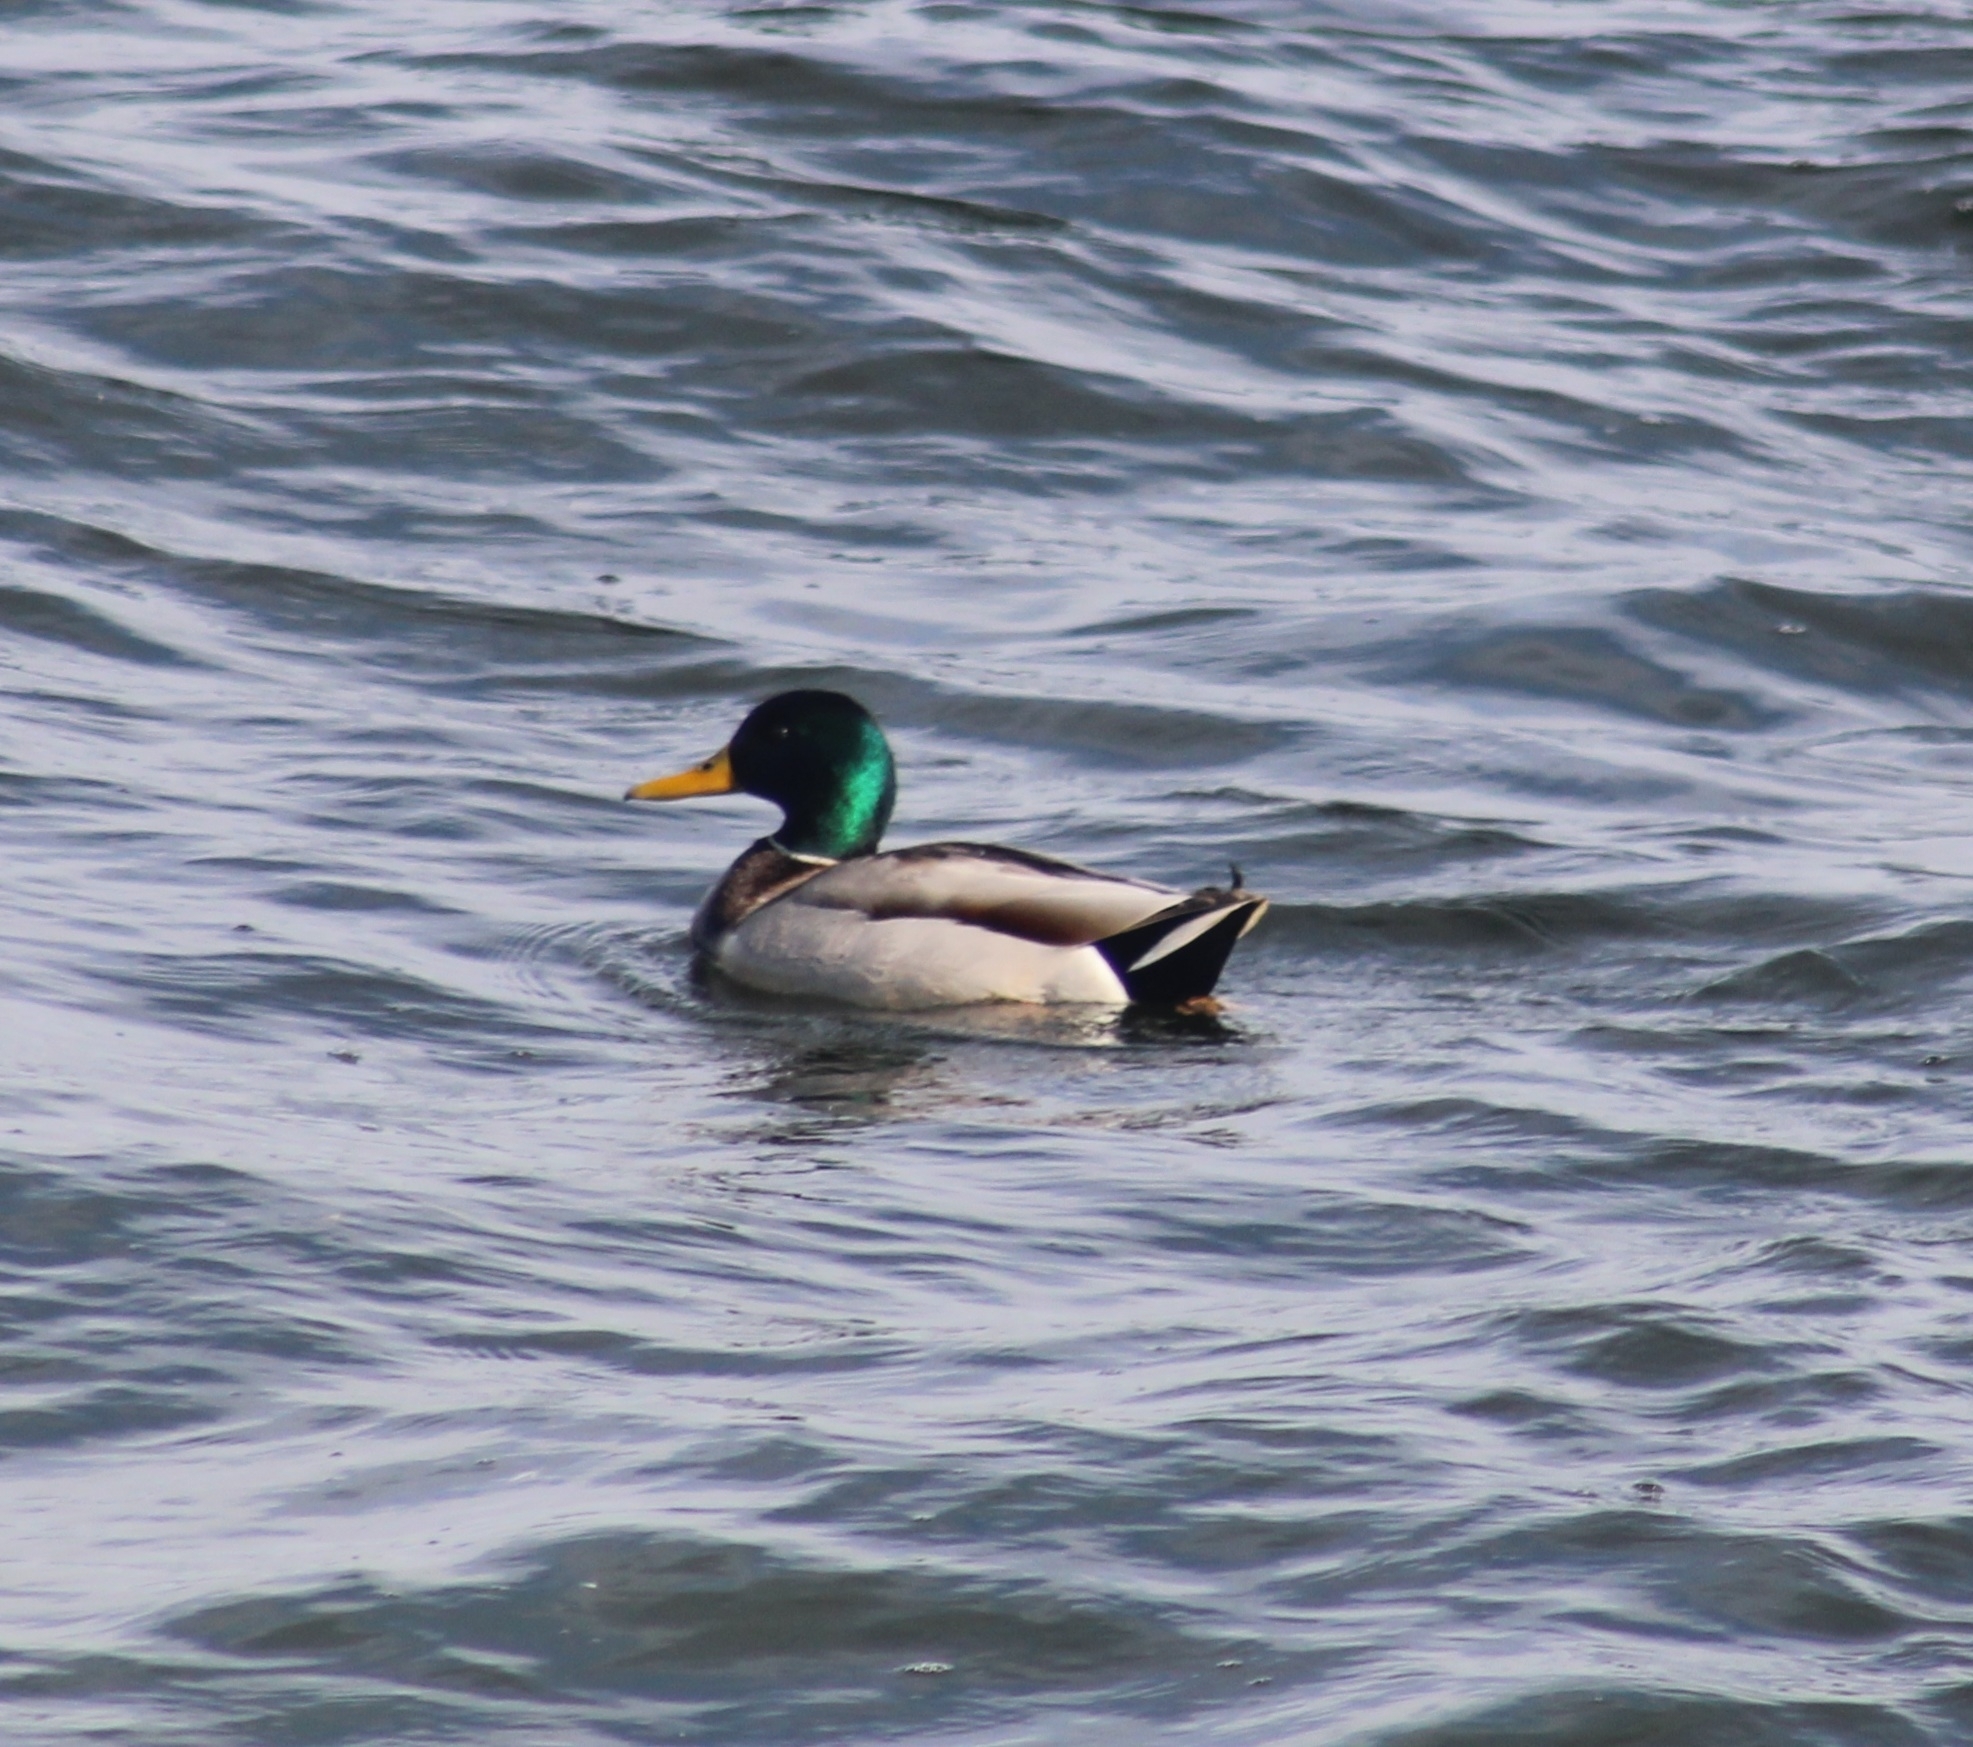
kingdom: Animalia
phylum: Chordata
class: Aves
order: Anseriformes
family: Anatidae
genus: Anas
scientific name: Anas platyrhynchos
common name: Mallard
